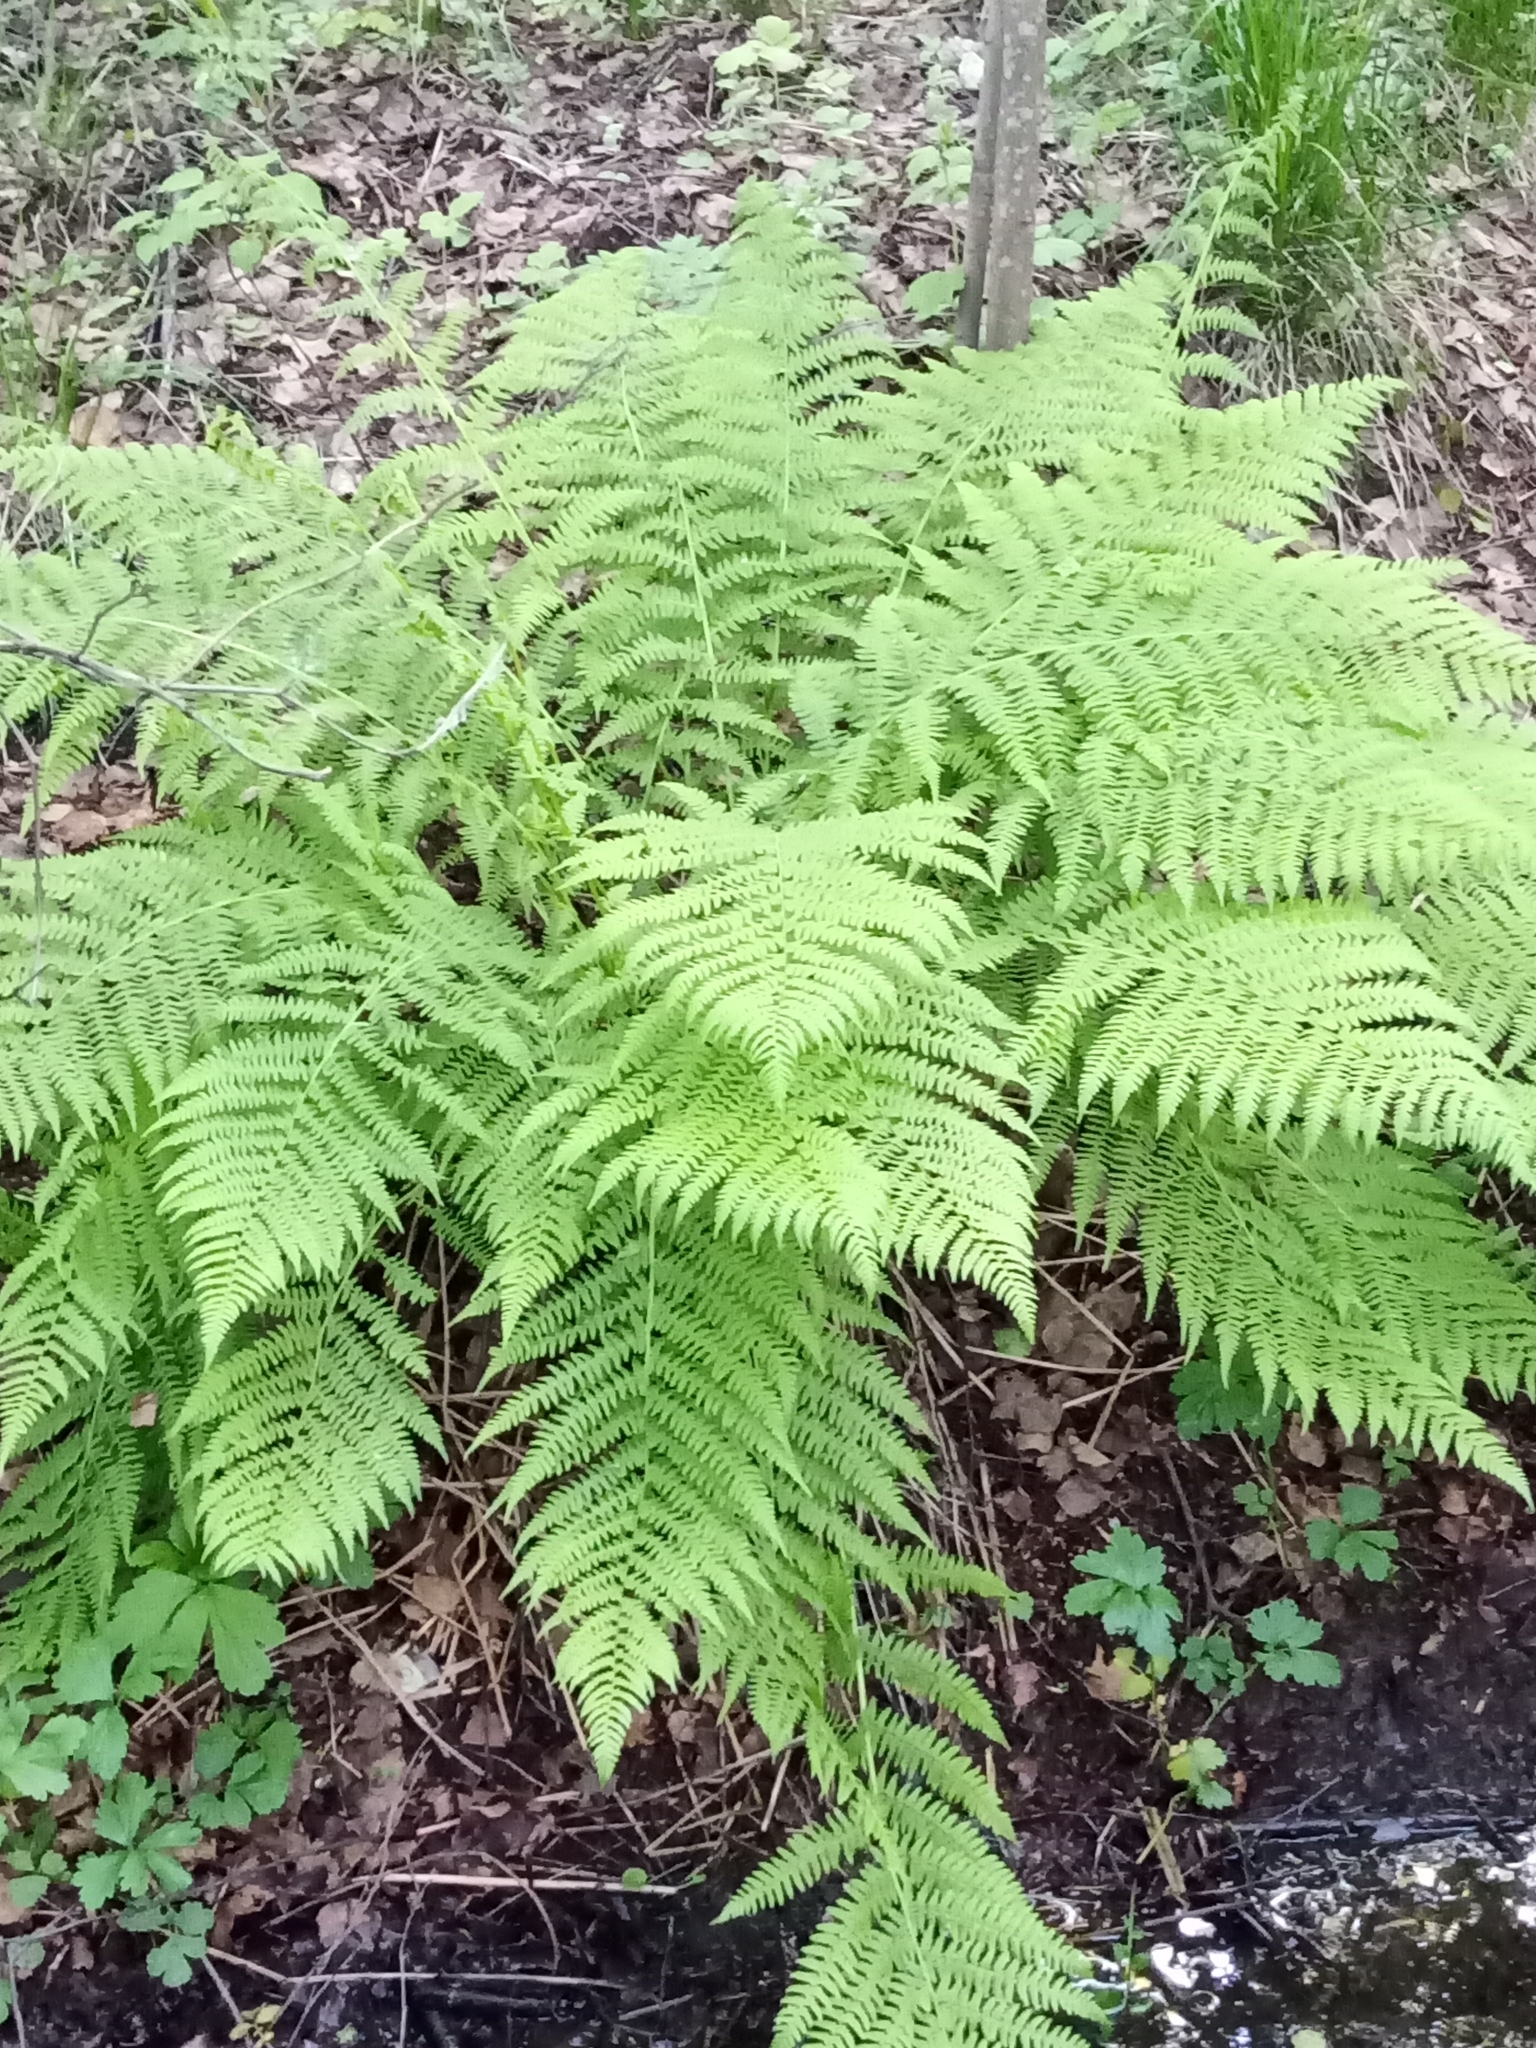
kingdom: Plantae
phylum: Tracheophyta
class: Polypodiopsida
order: Polypodiales
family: Athyriaceae
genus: Athyrium
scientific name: Athyrium filix-femina
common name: Lady fern
